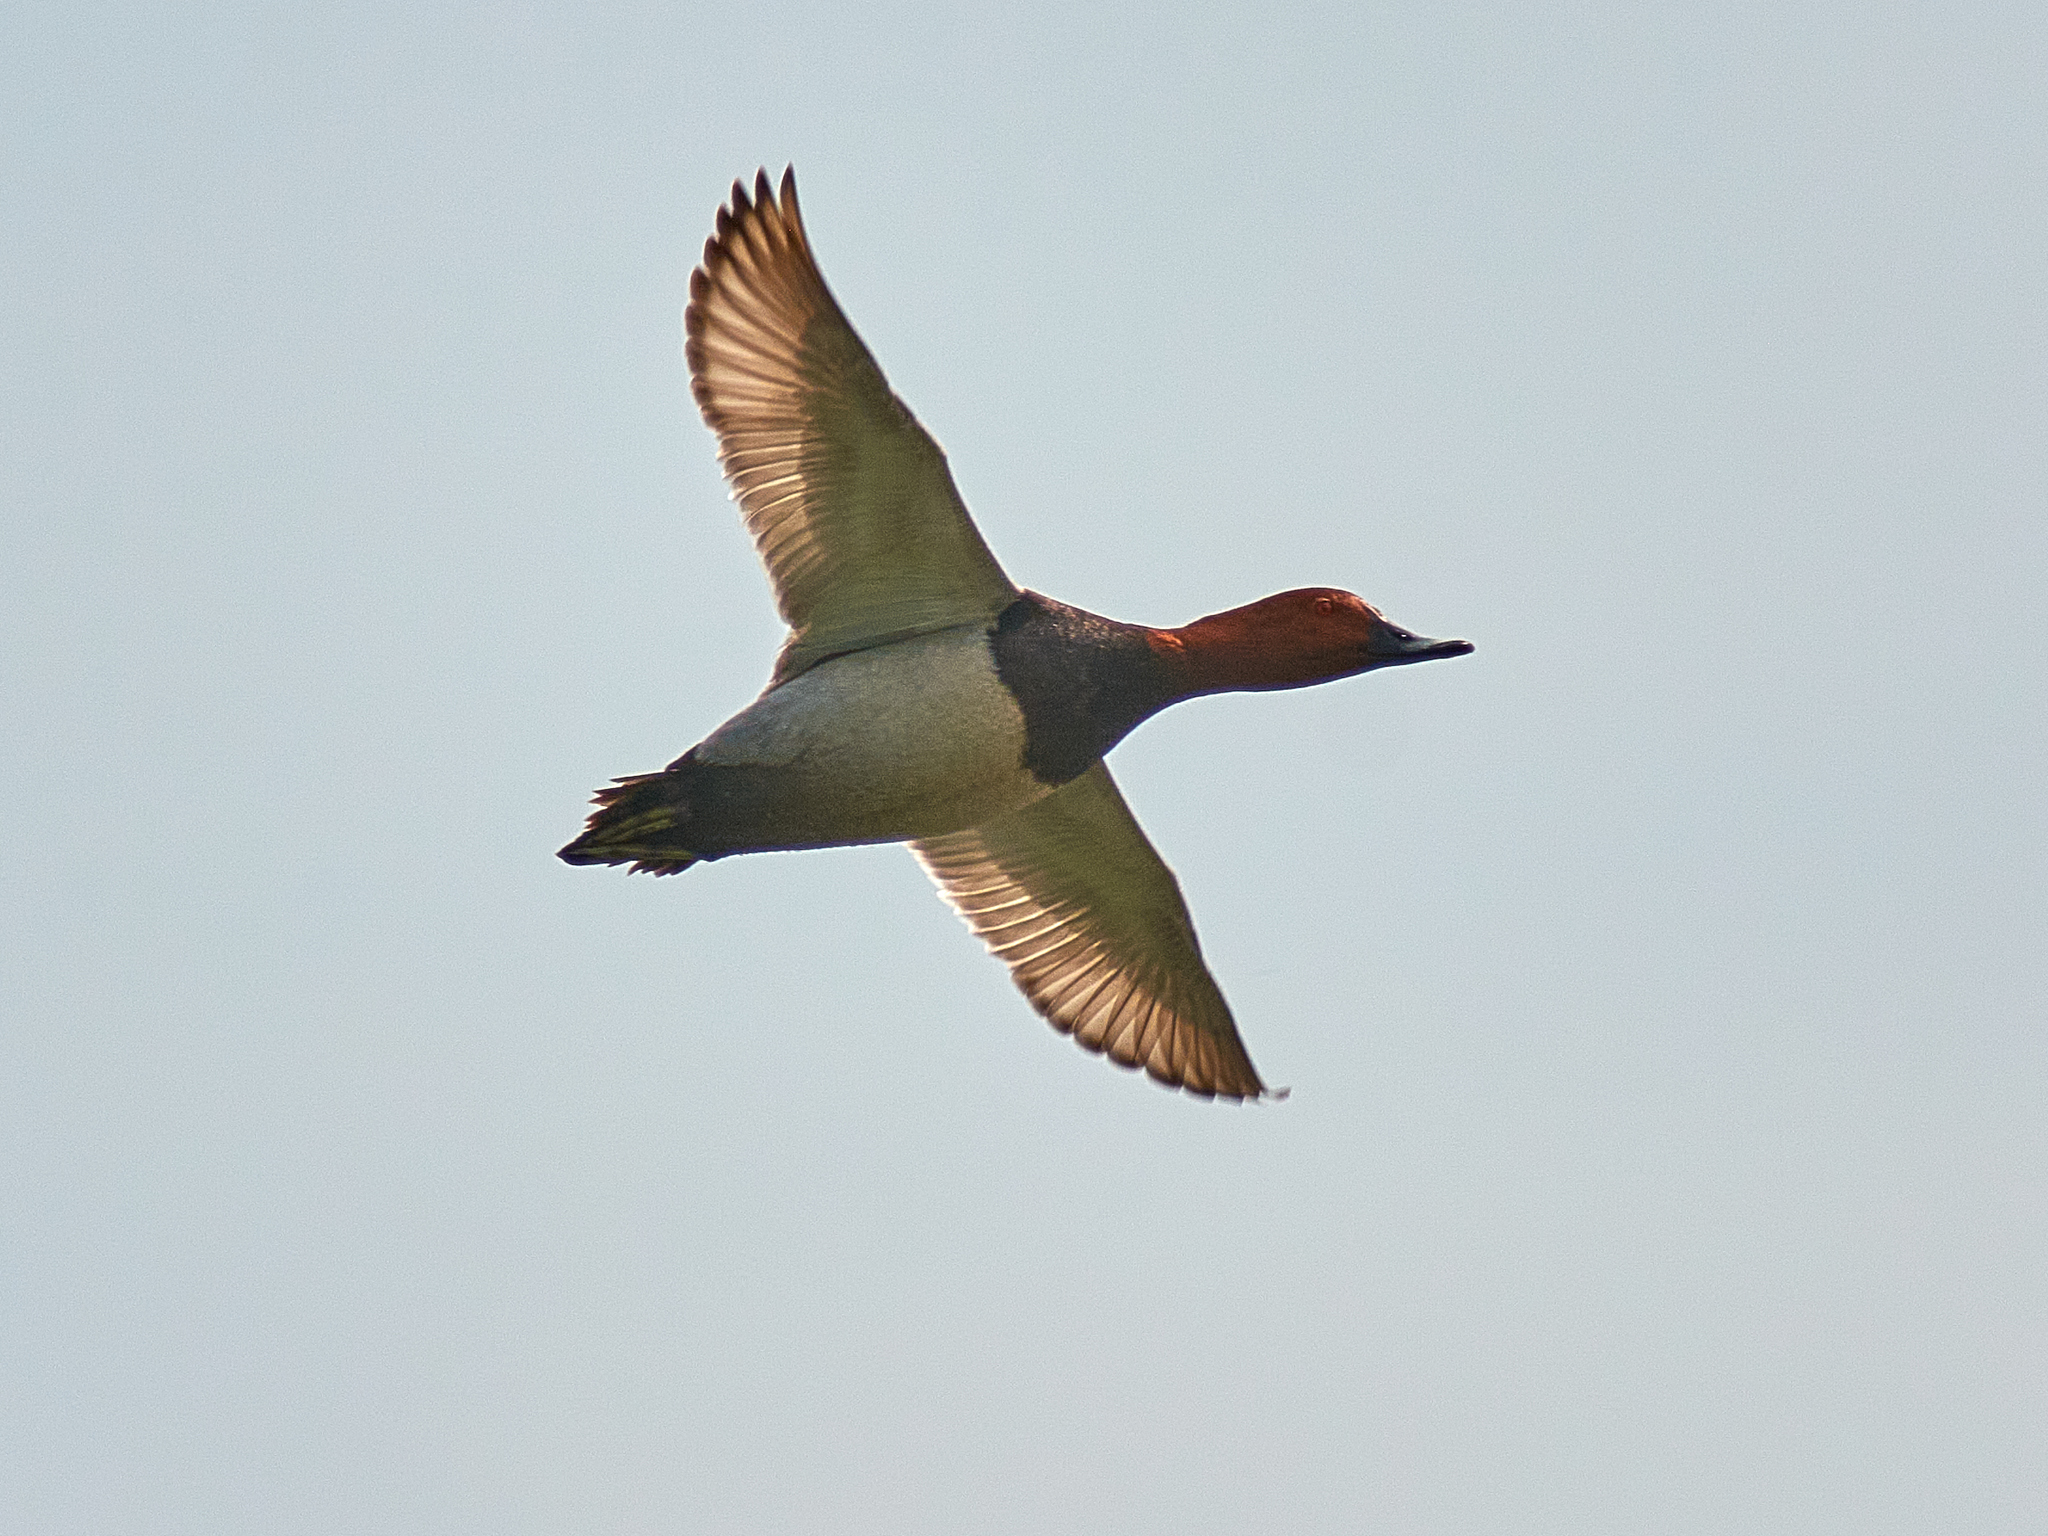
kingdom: Animalia
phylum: Chordata
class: Aves
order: Anseriformes
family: Anatidae
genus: Aythya
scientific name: Aythya ferina
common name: Common pochard
